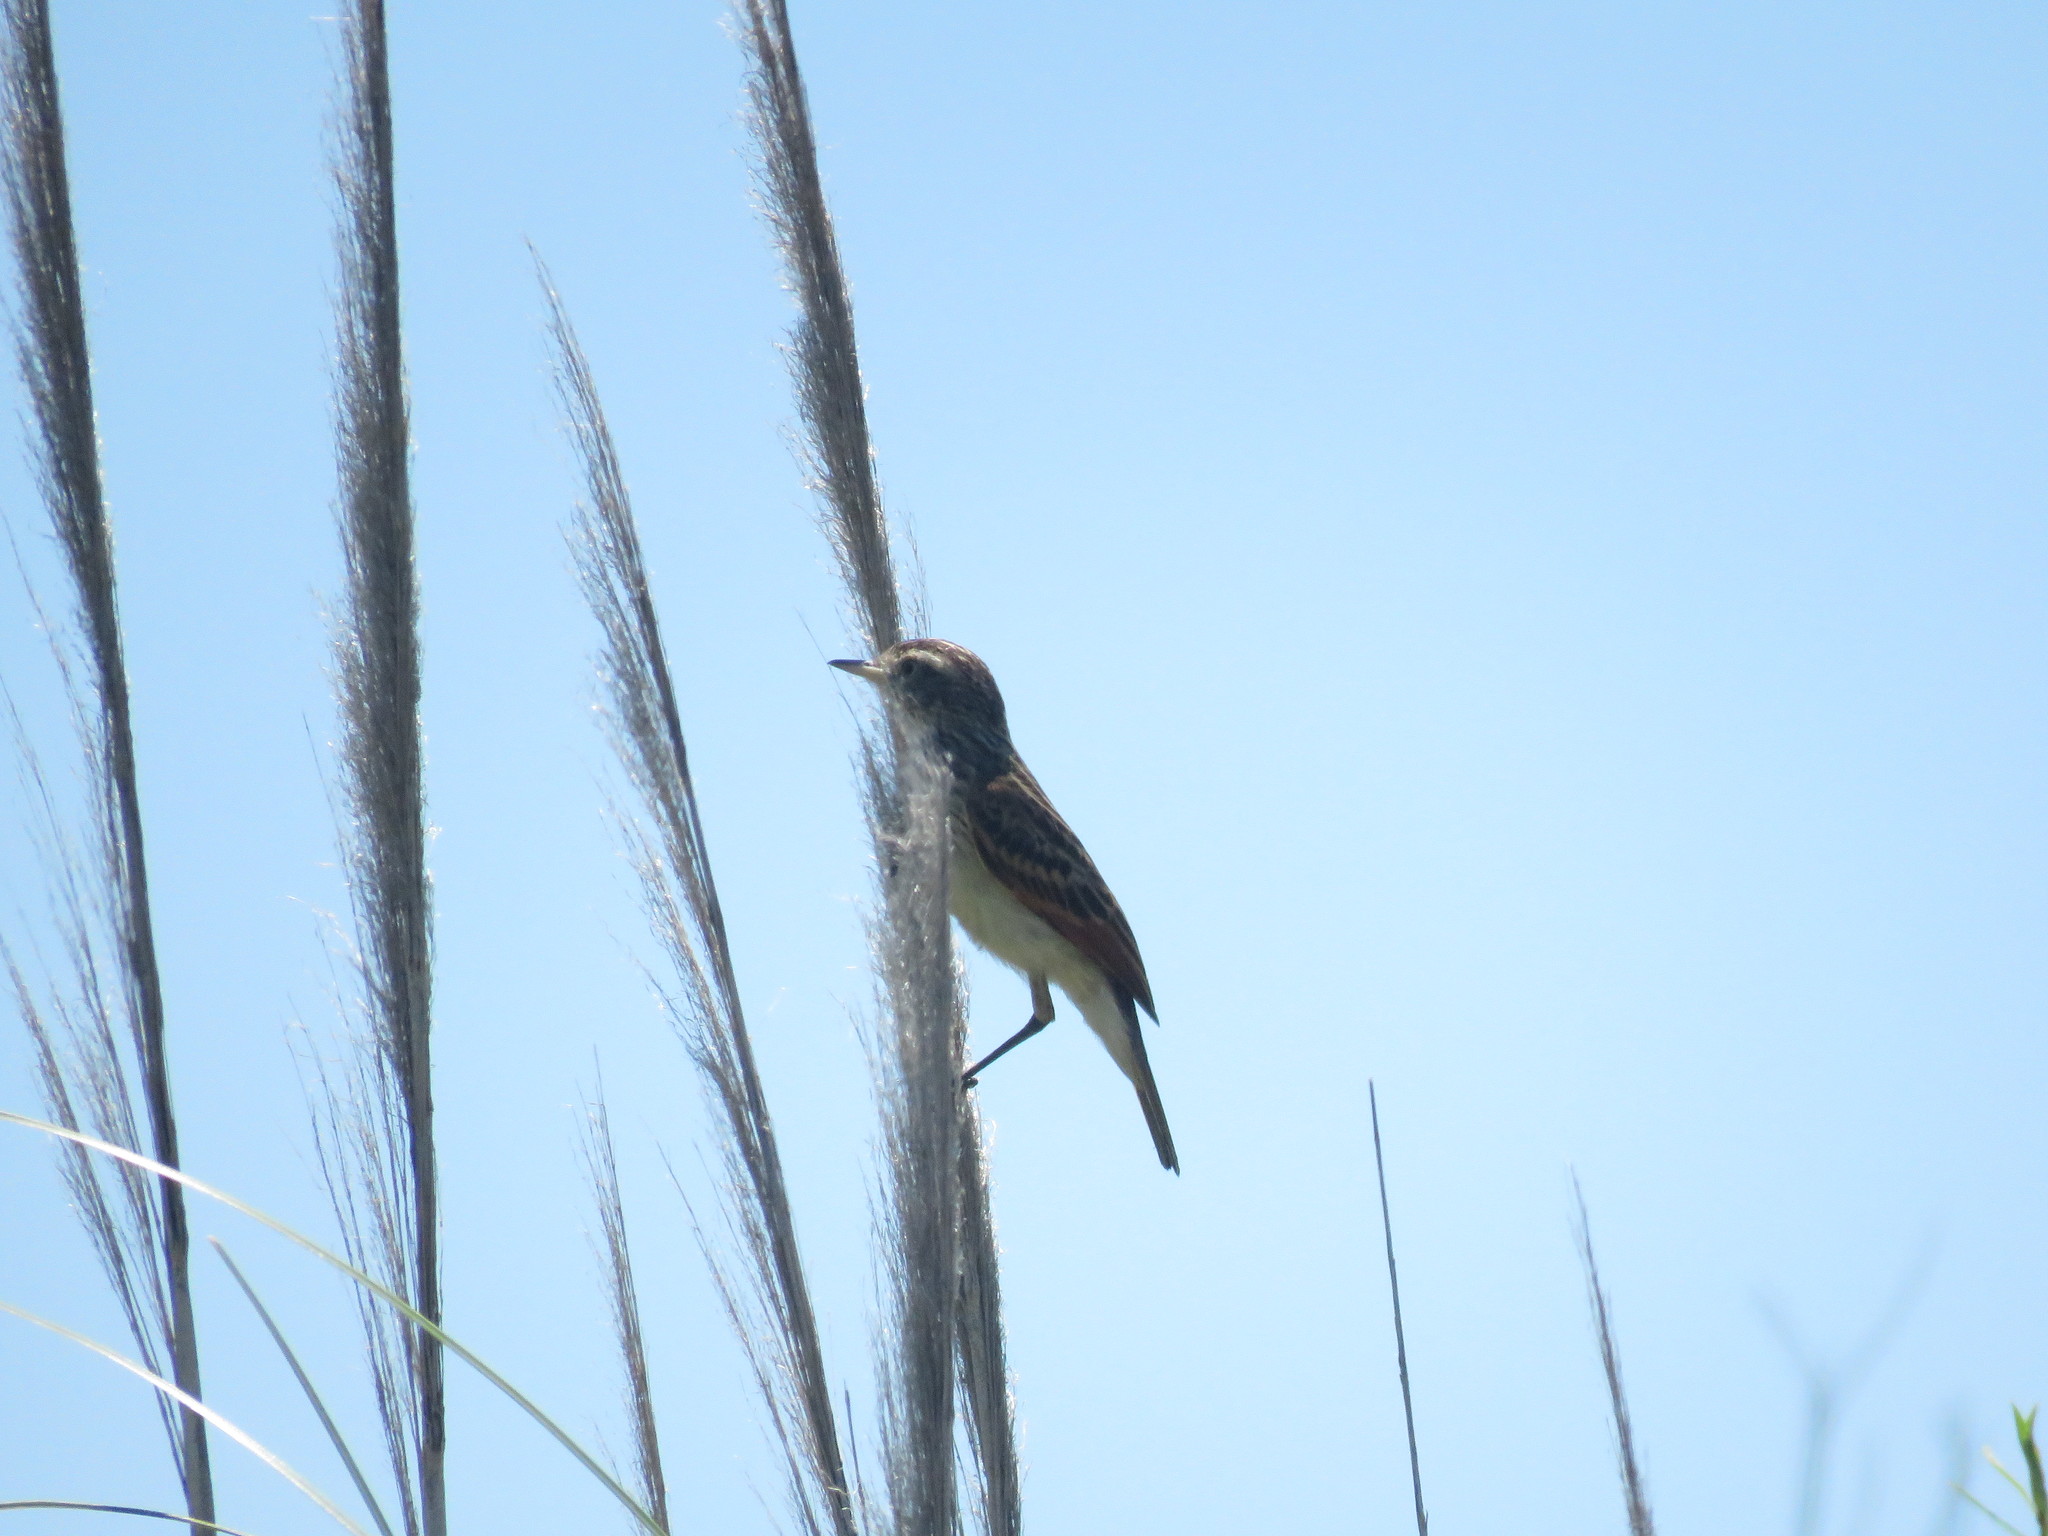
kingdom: Animalia
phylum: Chordata
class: Aves
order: Passeriformes
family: Tyrannidae
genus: Hymenops
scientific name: Hymenops perspicillatus
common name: Spectacled tyrant
